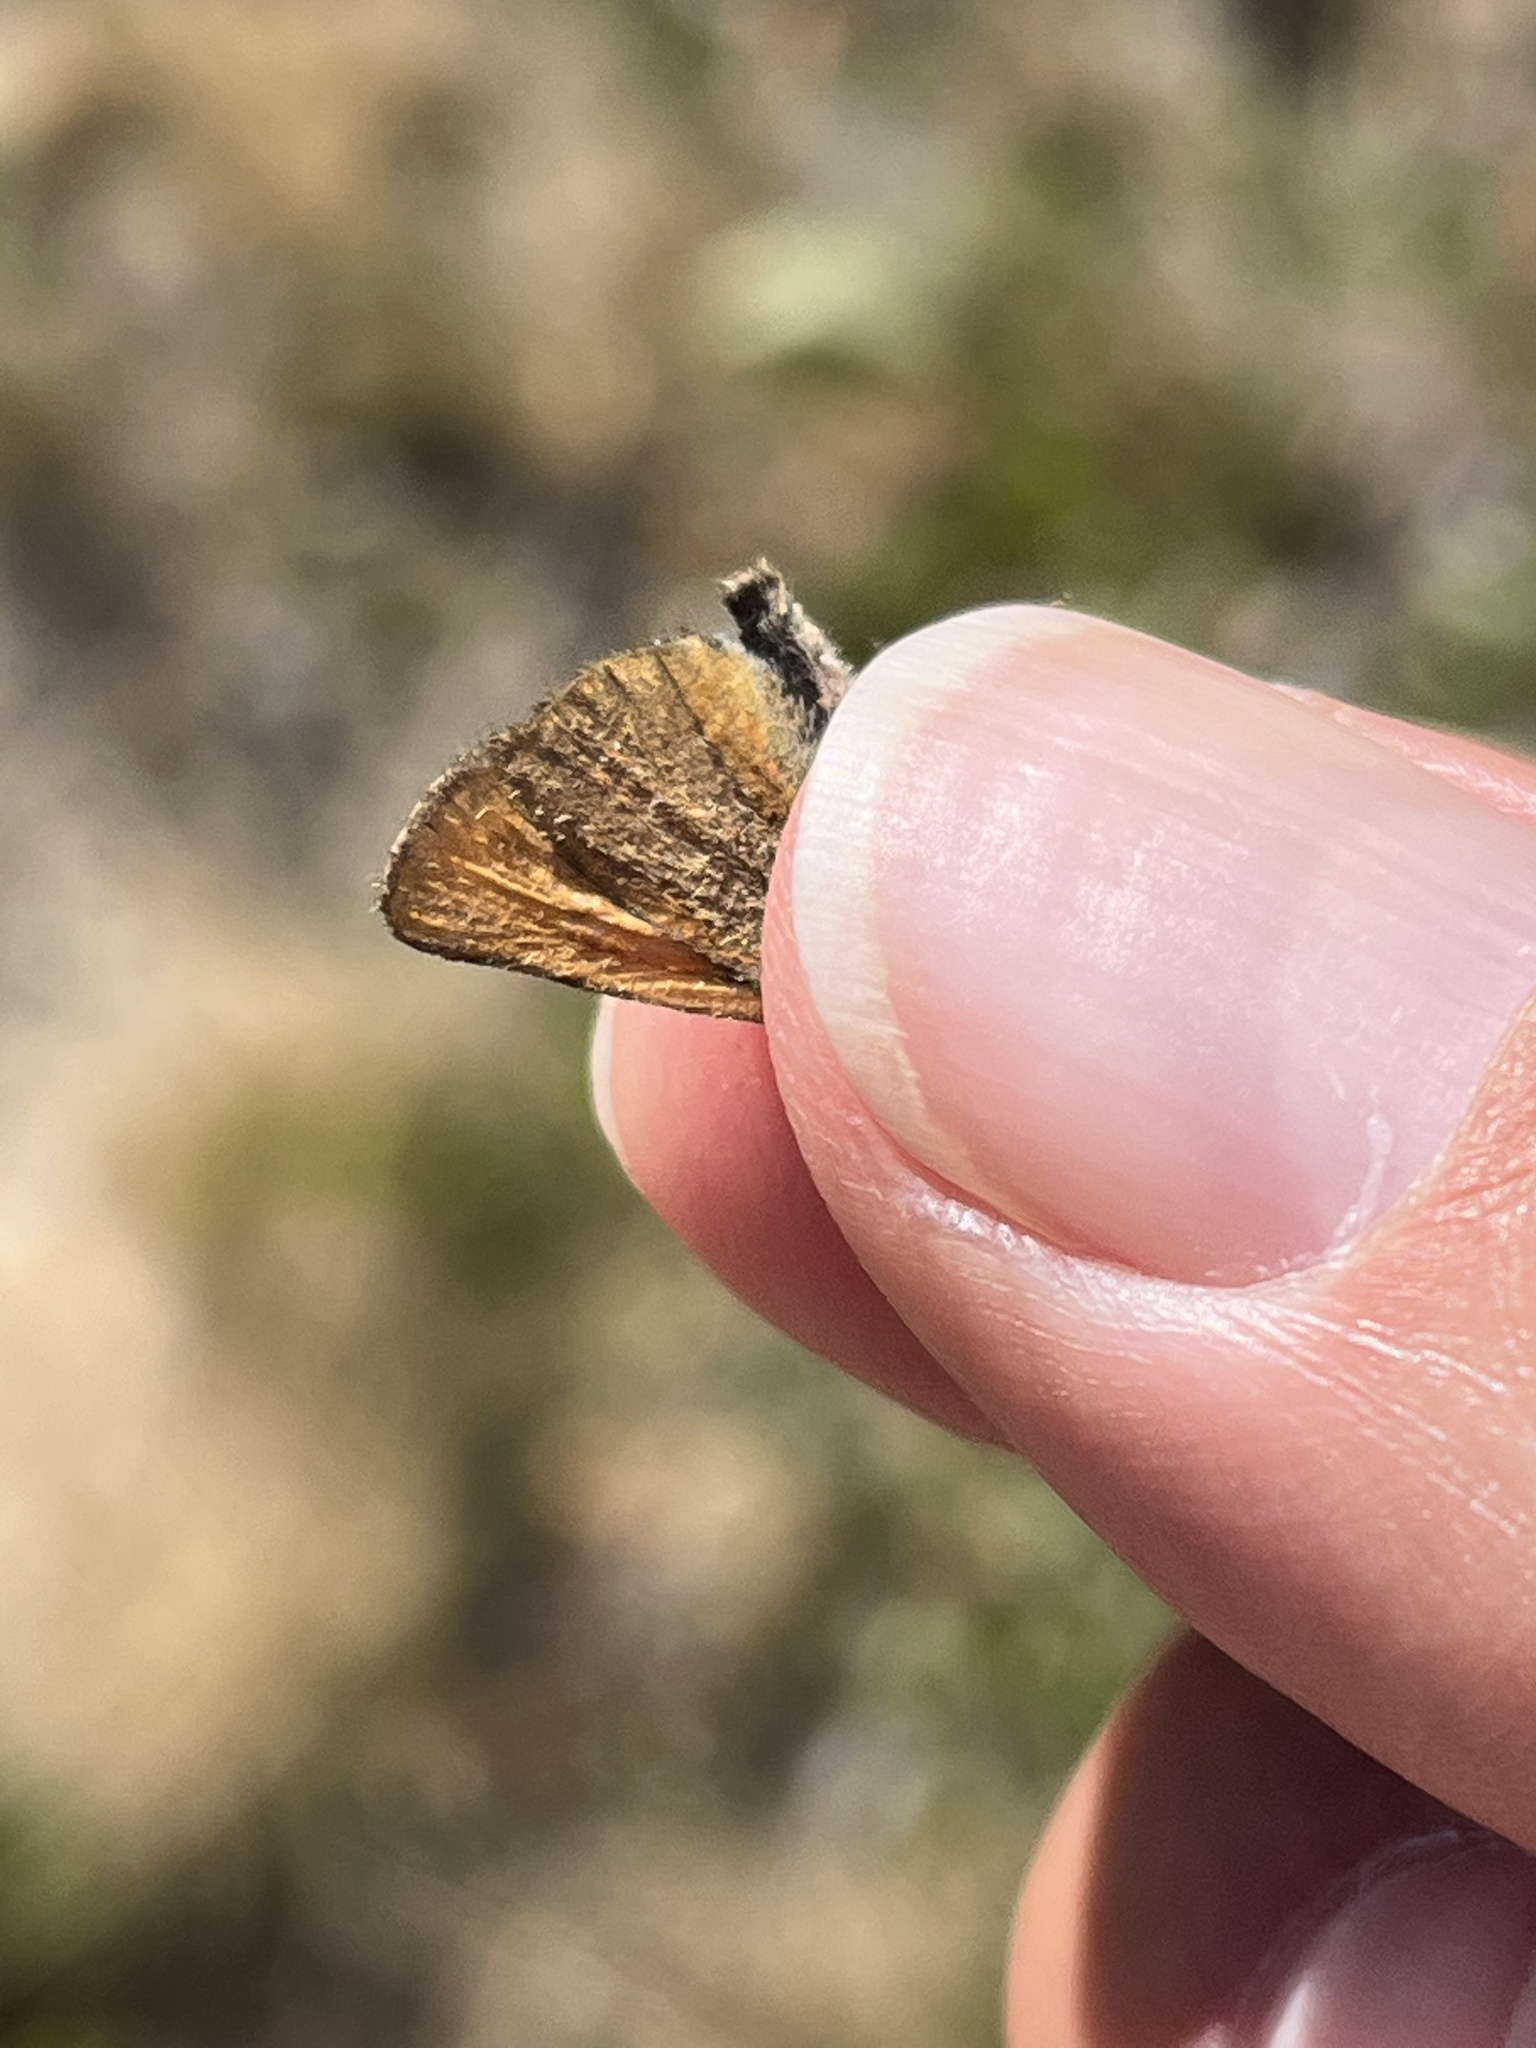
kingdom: Animalia
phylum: Arthropoda
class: Insecta
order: Lepidoptera
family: Hesperiidae
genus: Thymelicus
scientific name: Thymelicus lineola
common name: Essex skipper
